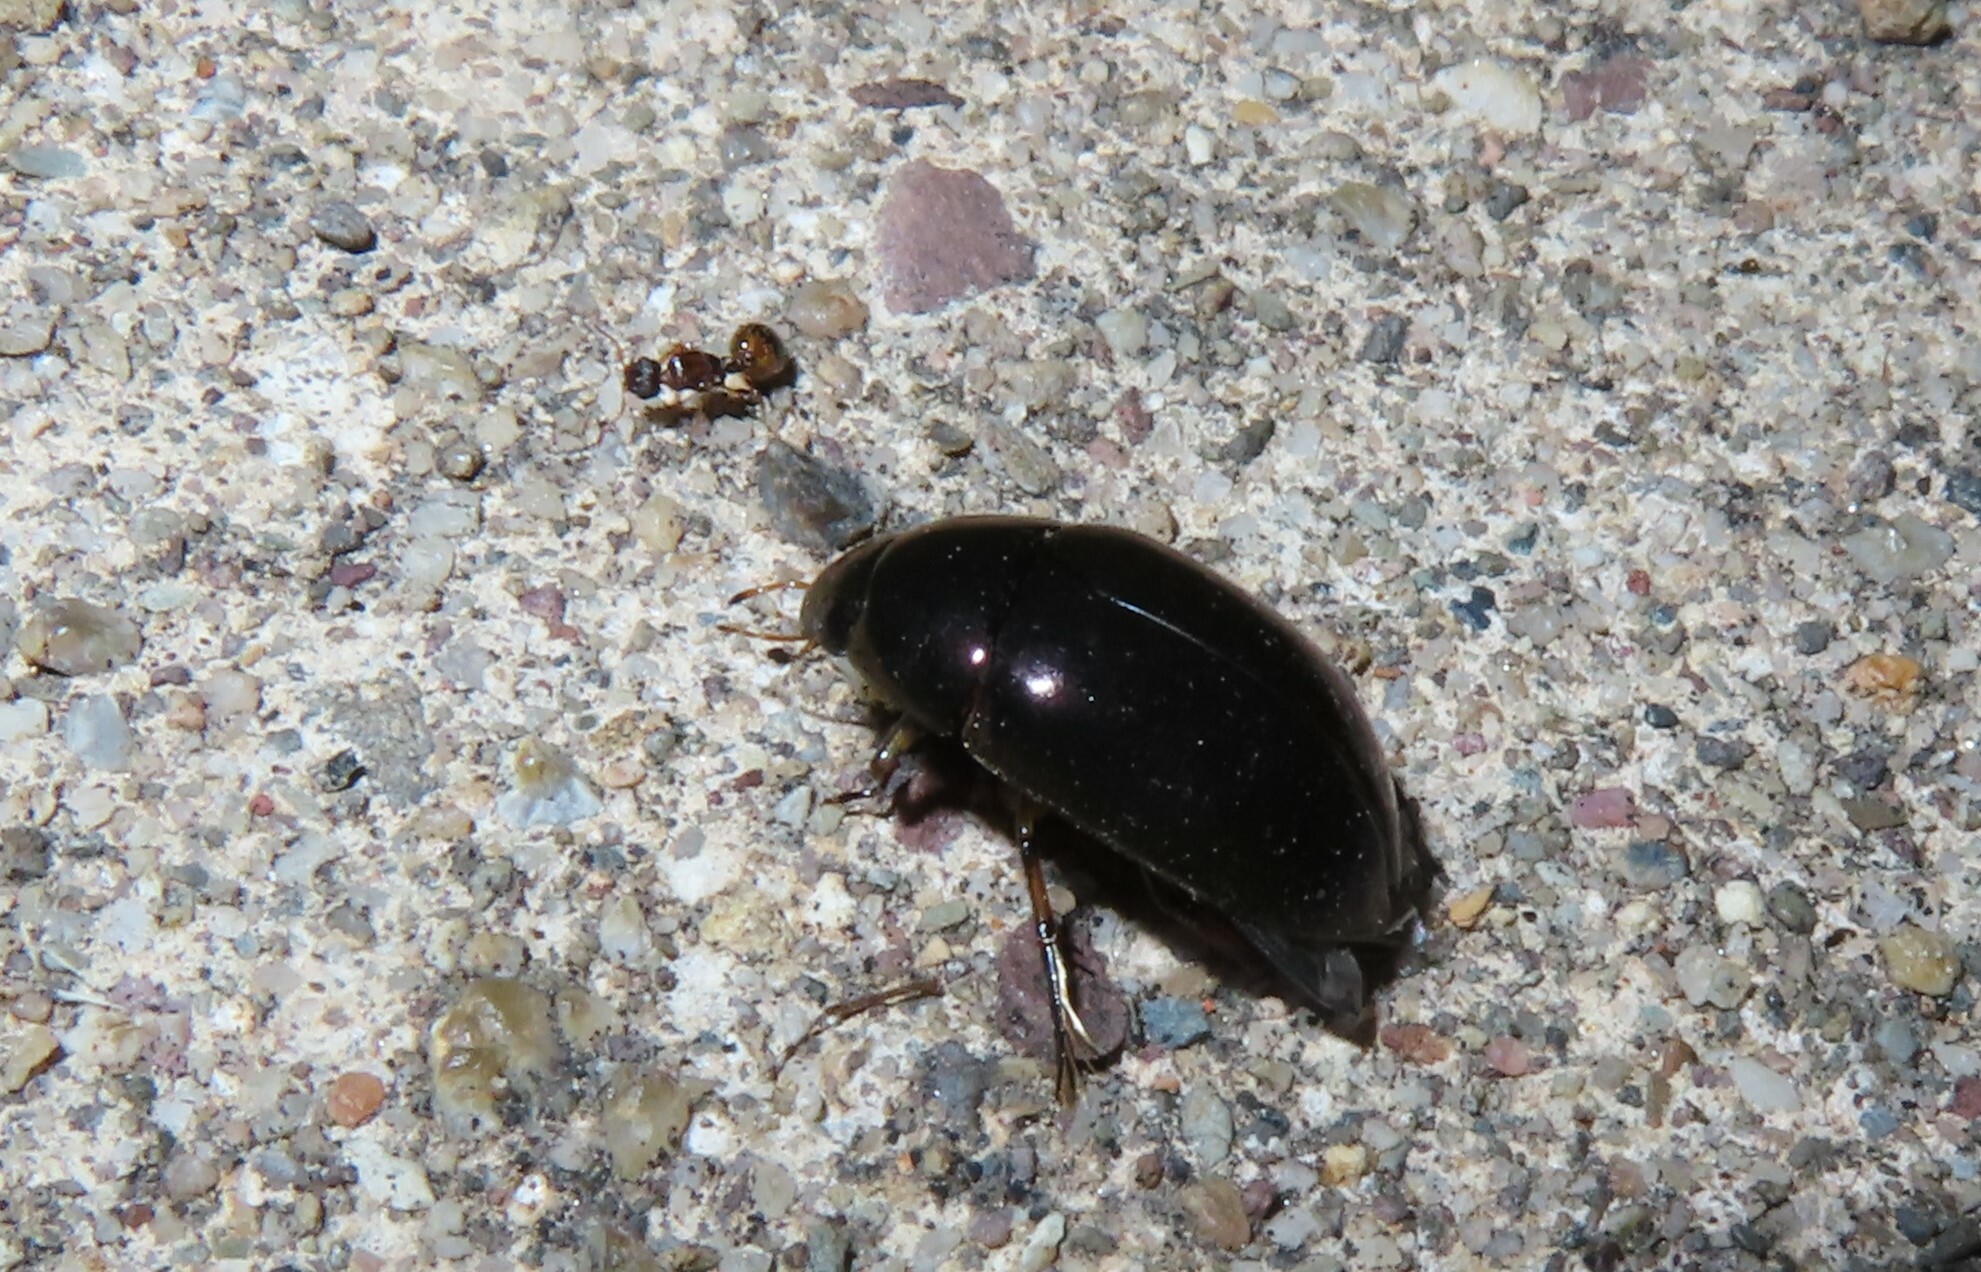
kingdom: Animalia
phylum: Arthropoda
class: Insecta
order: Coleoptera
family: Hydrophilidae
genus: Tropisternus
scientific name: Tropisternus
